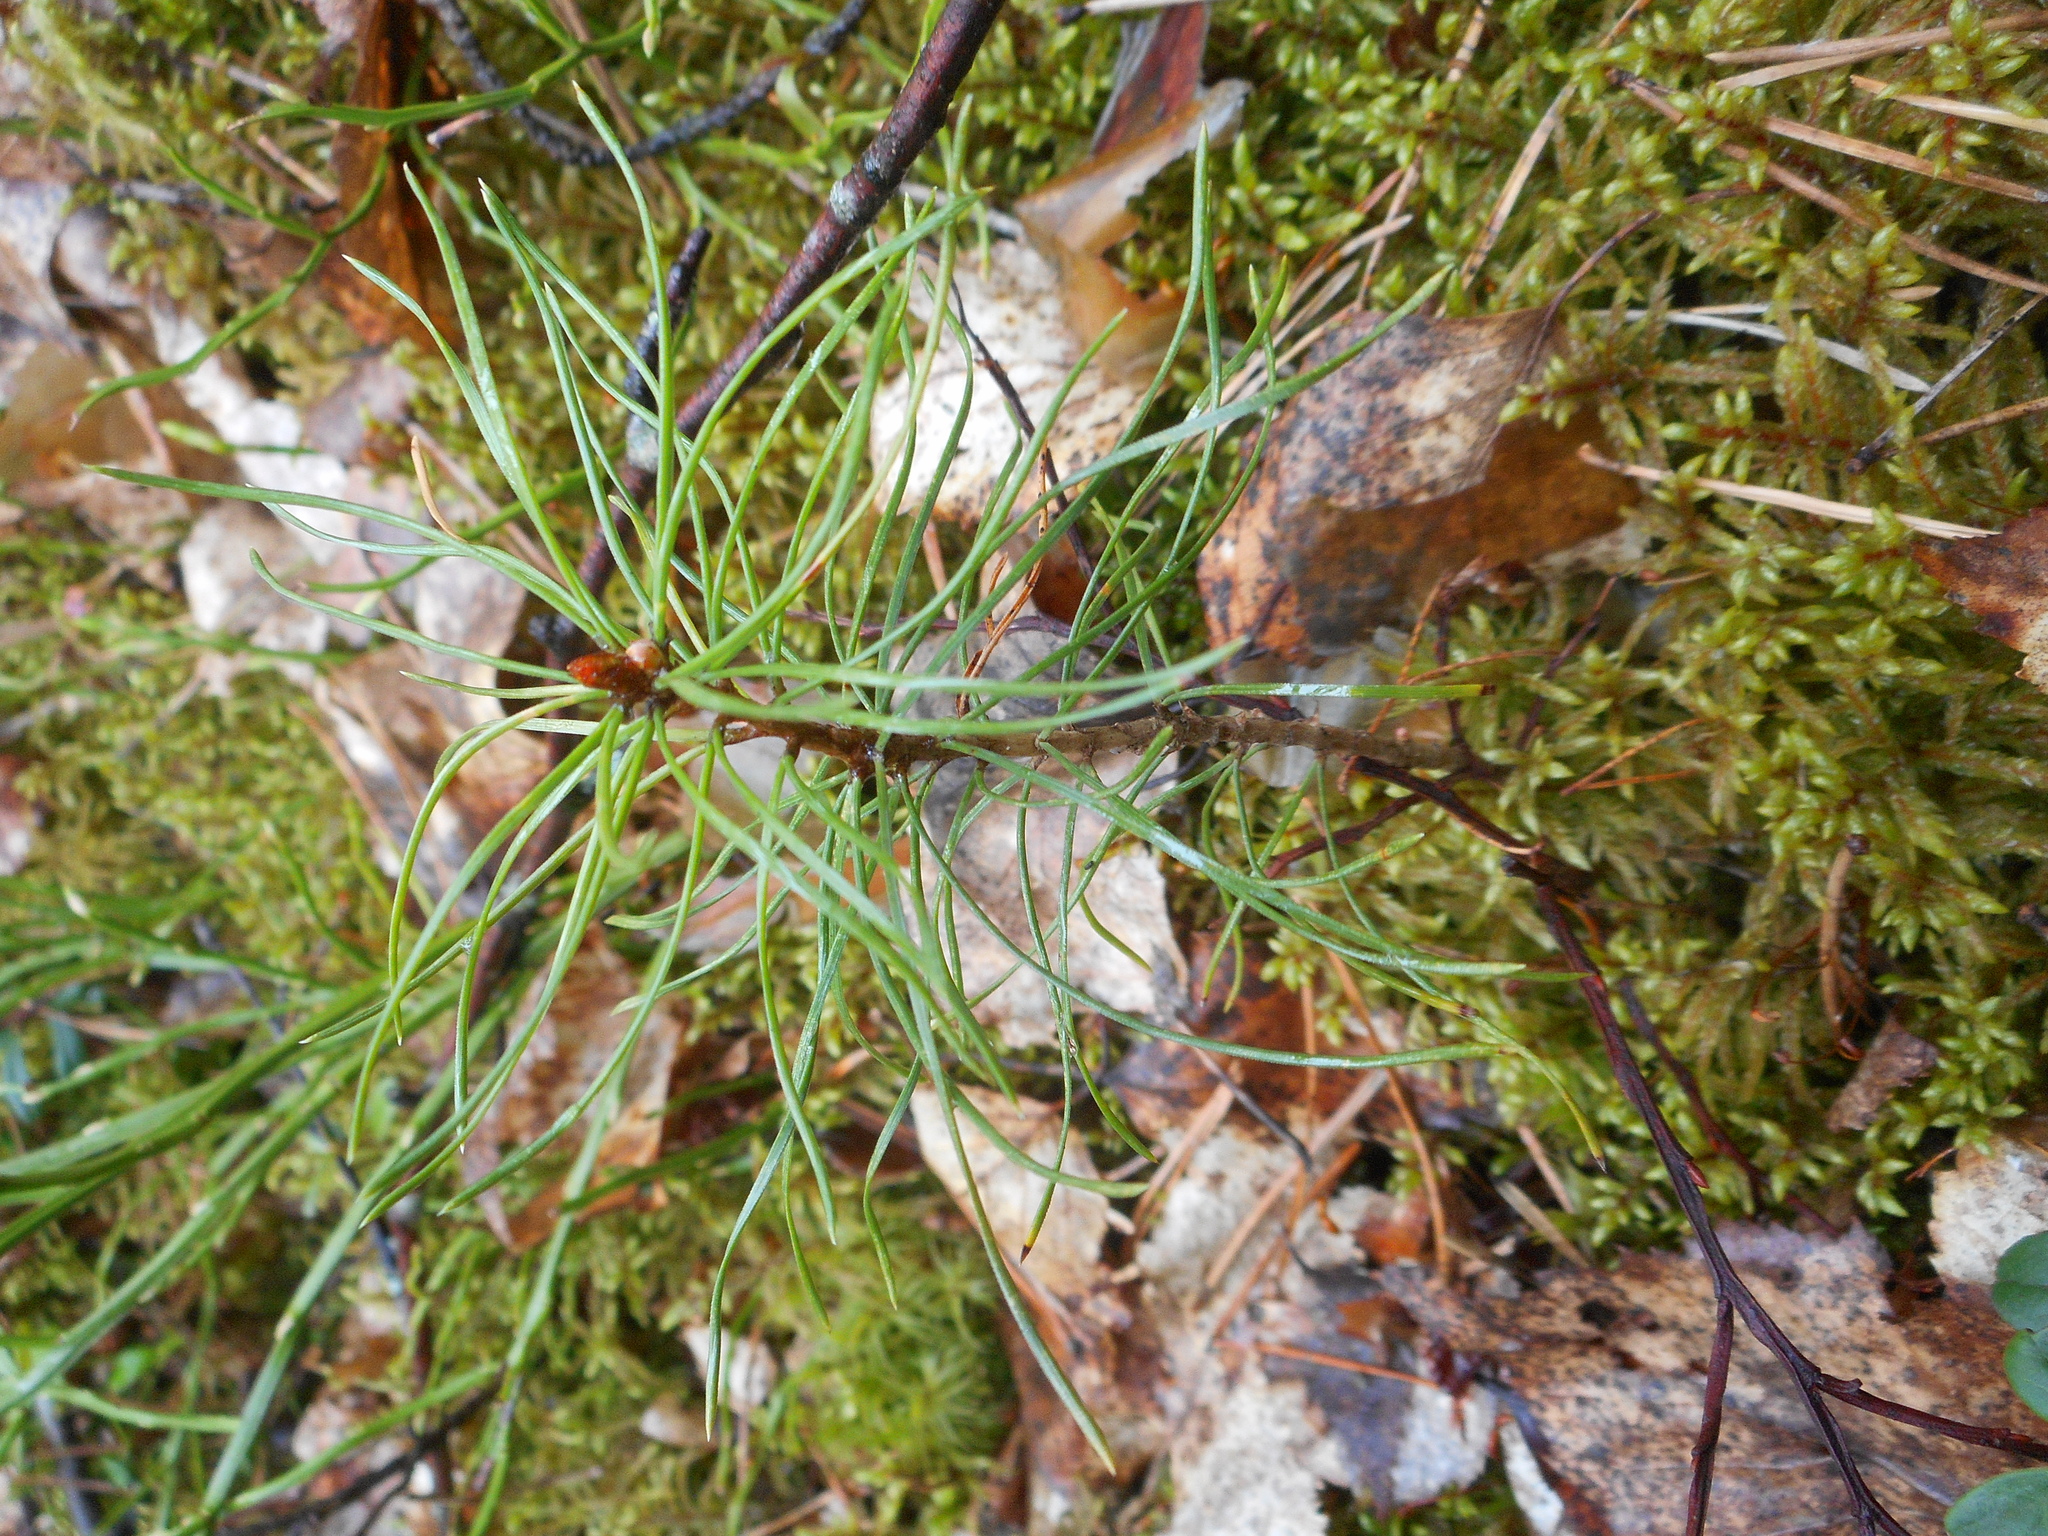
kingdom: Plantae
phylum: Tracheophyta
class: Pinopsida
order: Pinales
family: Pinaceae
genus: Pinus
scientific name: Pinus sylvestris
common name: Scots pine
